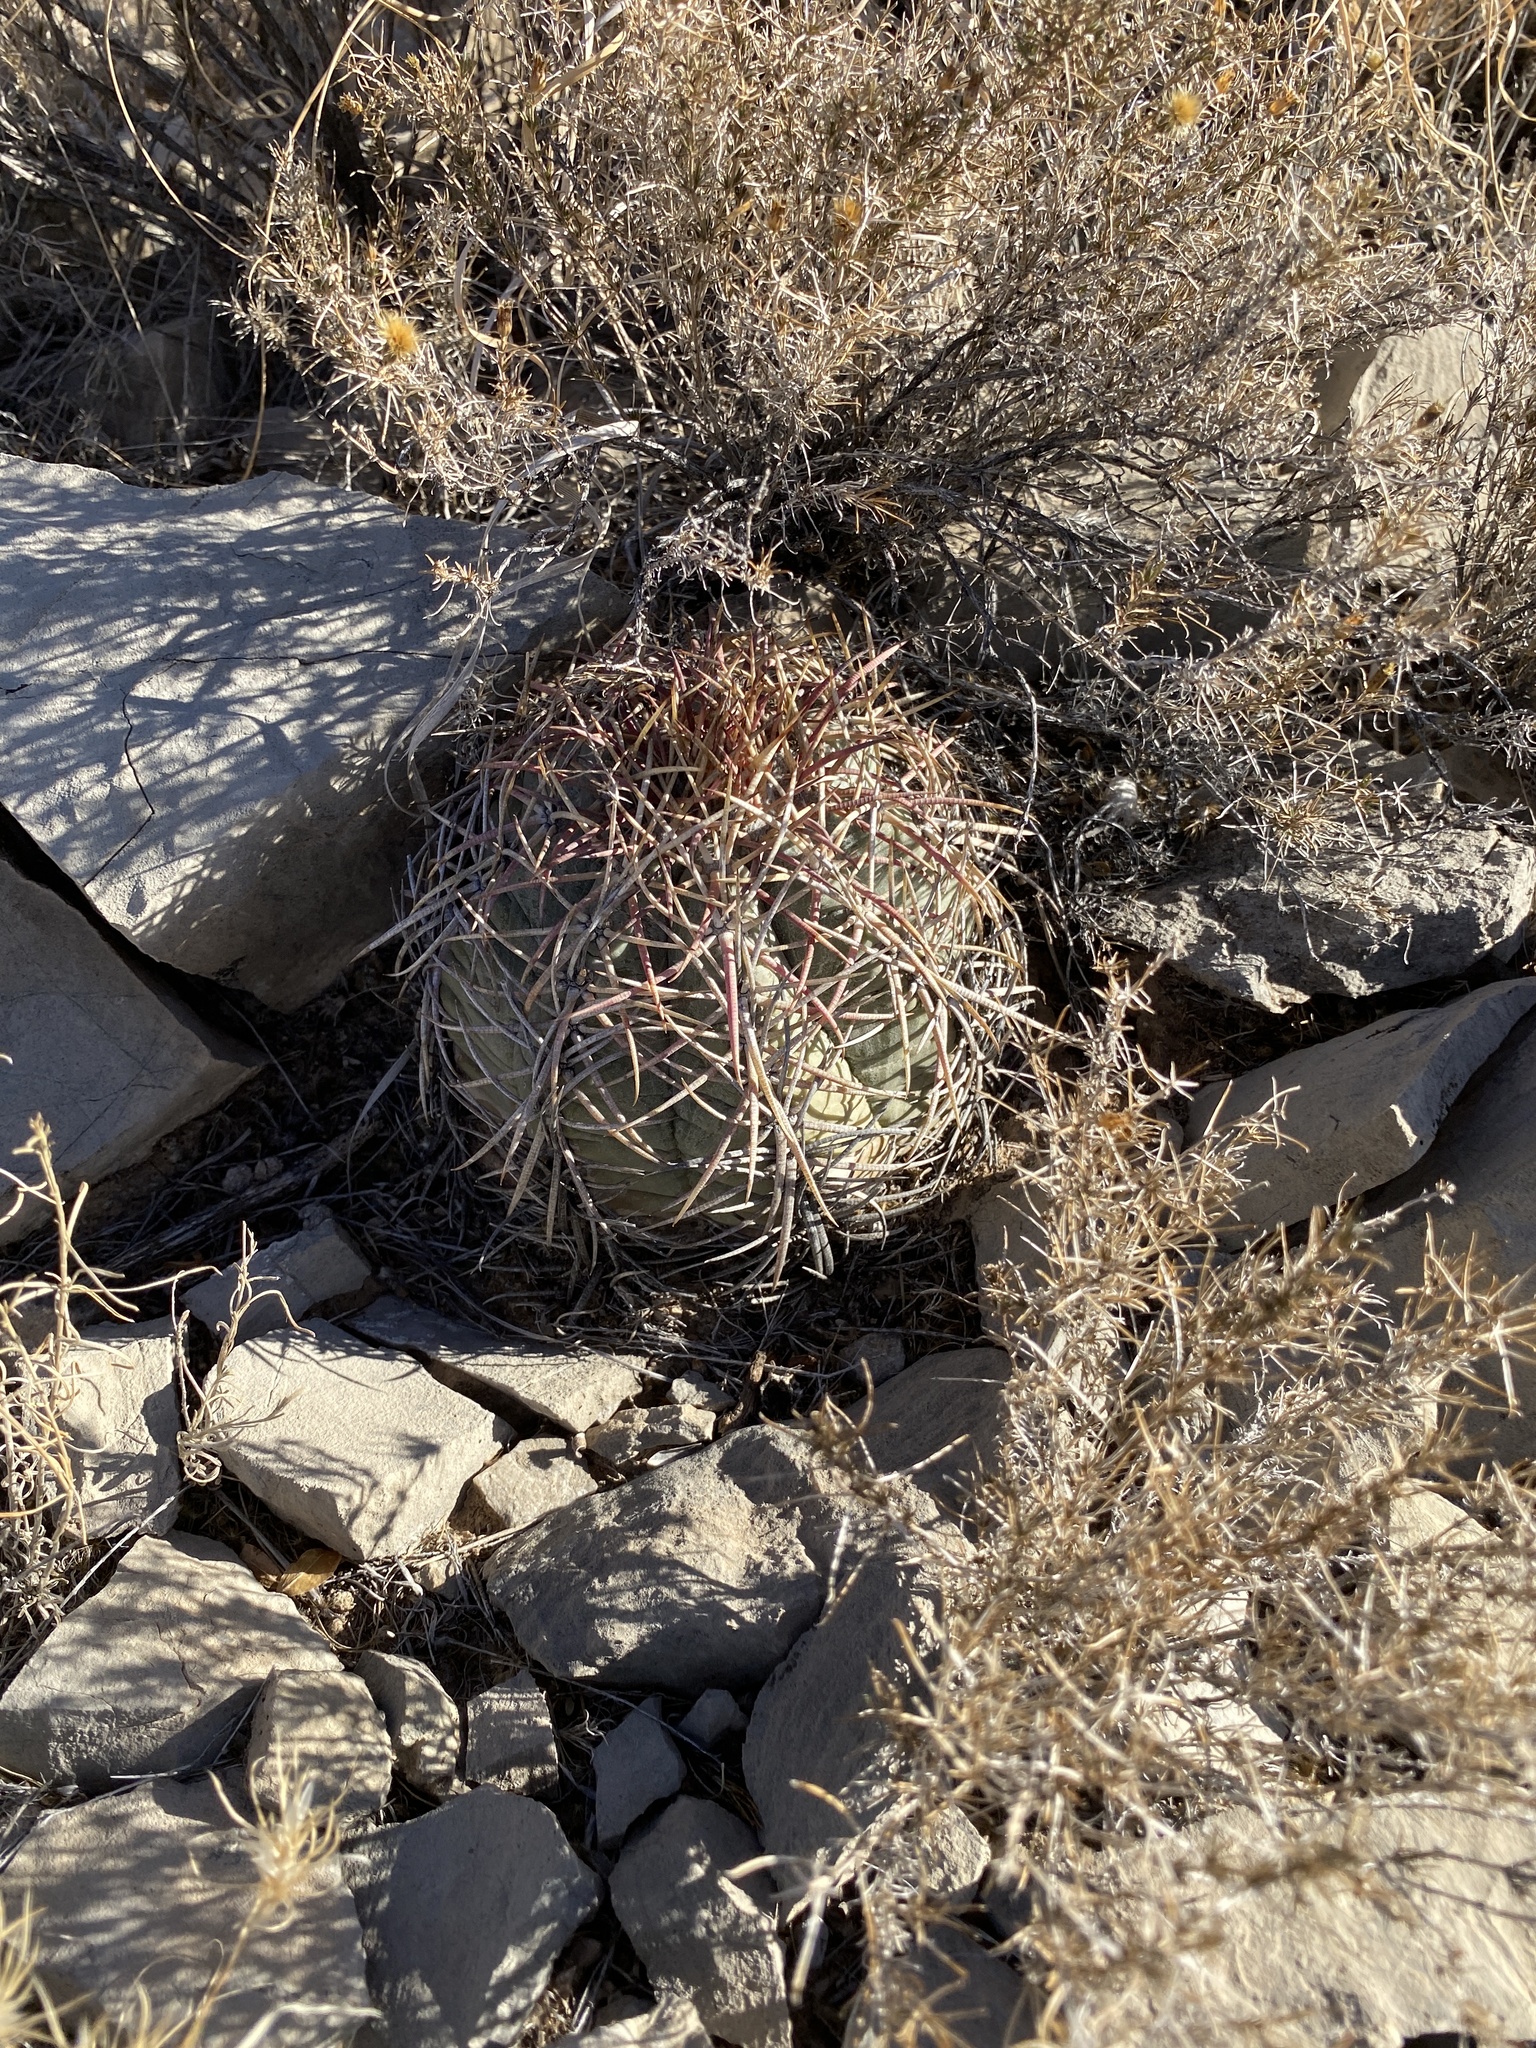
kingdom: Plantae
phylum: Tracheophyta
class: Magnoliopsida
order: Caryophyllales
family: Cactaceae
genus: Echinocactus
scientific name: Echinocactus horizonthalonius
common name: Devilshead
